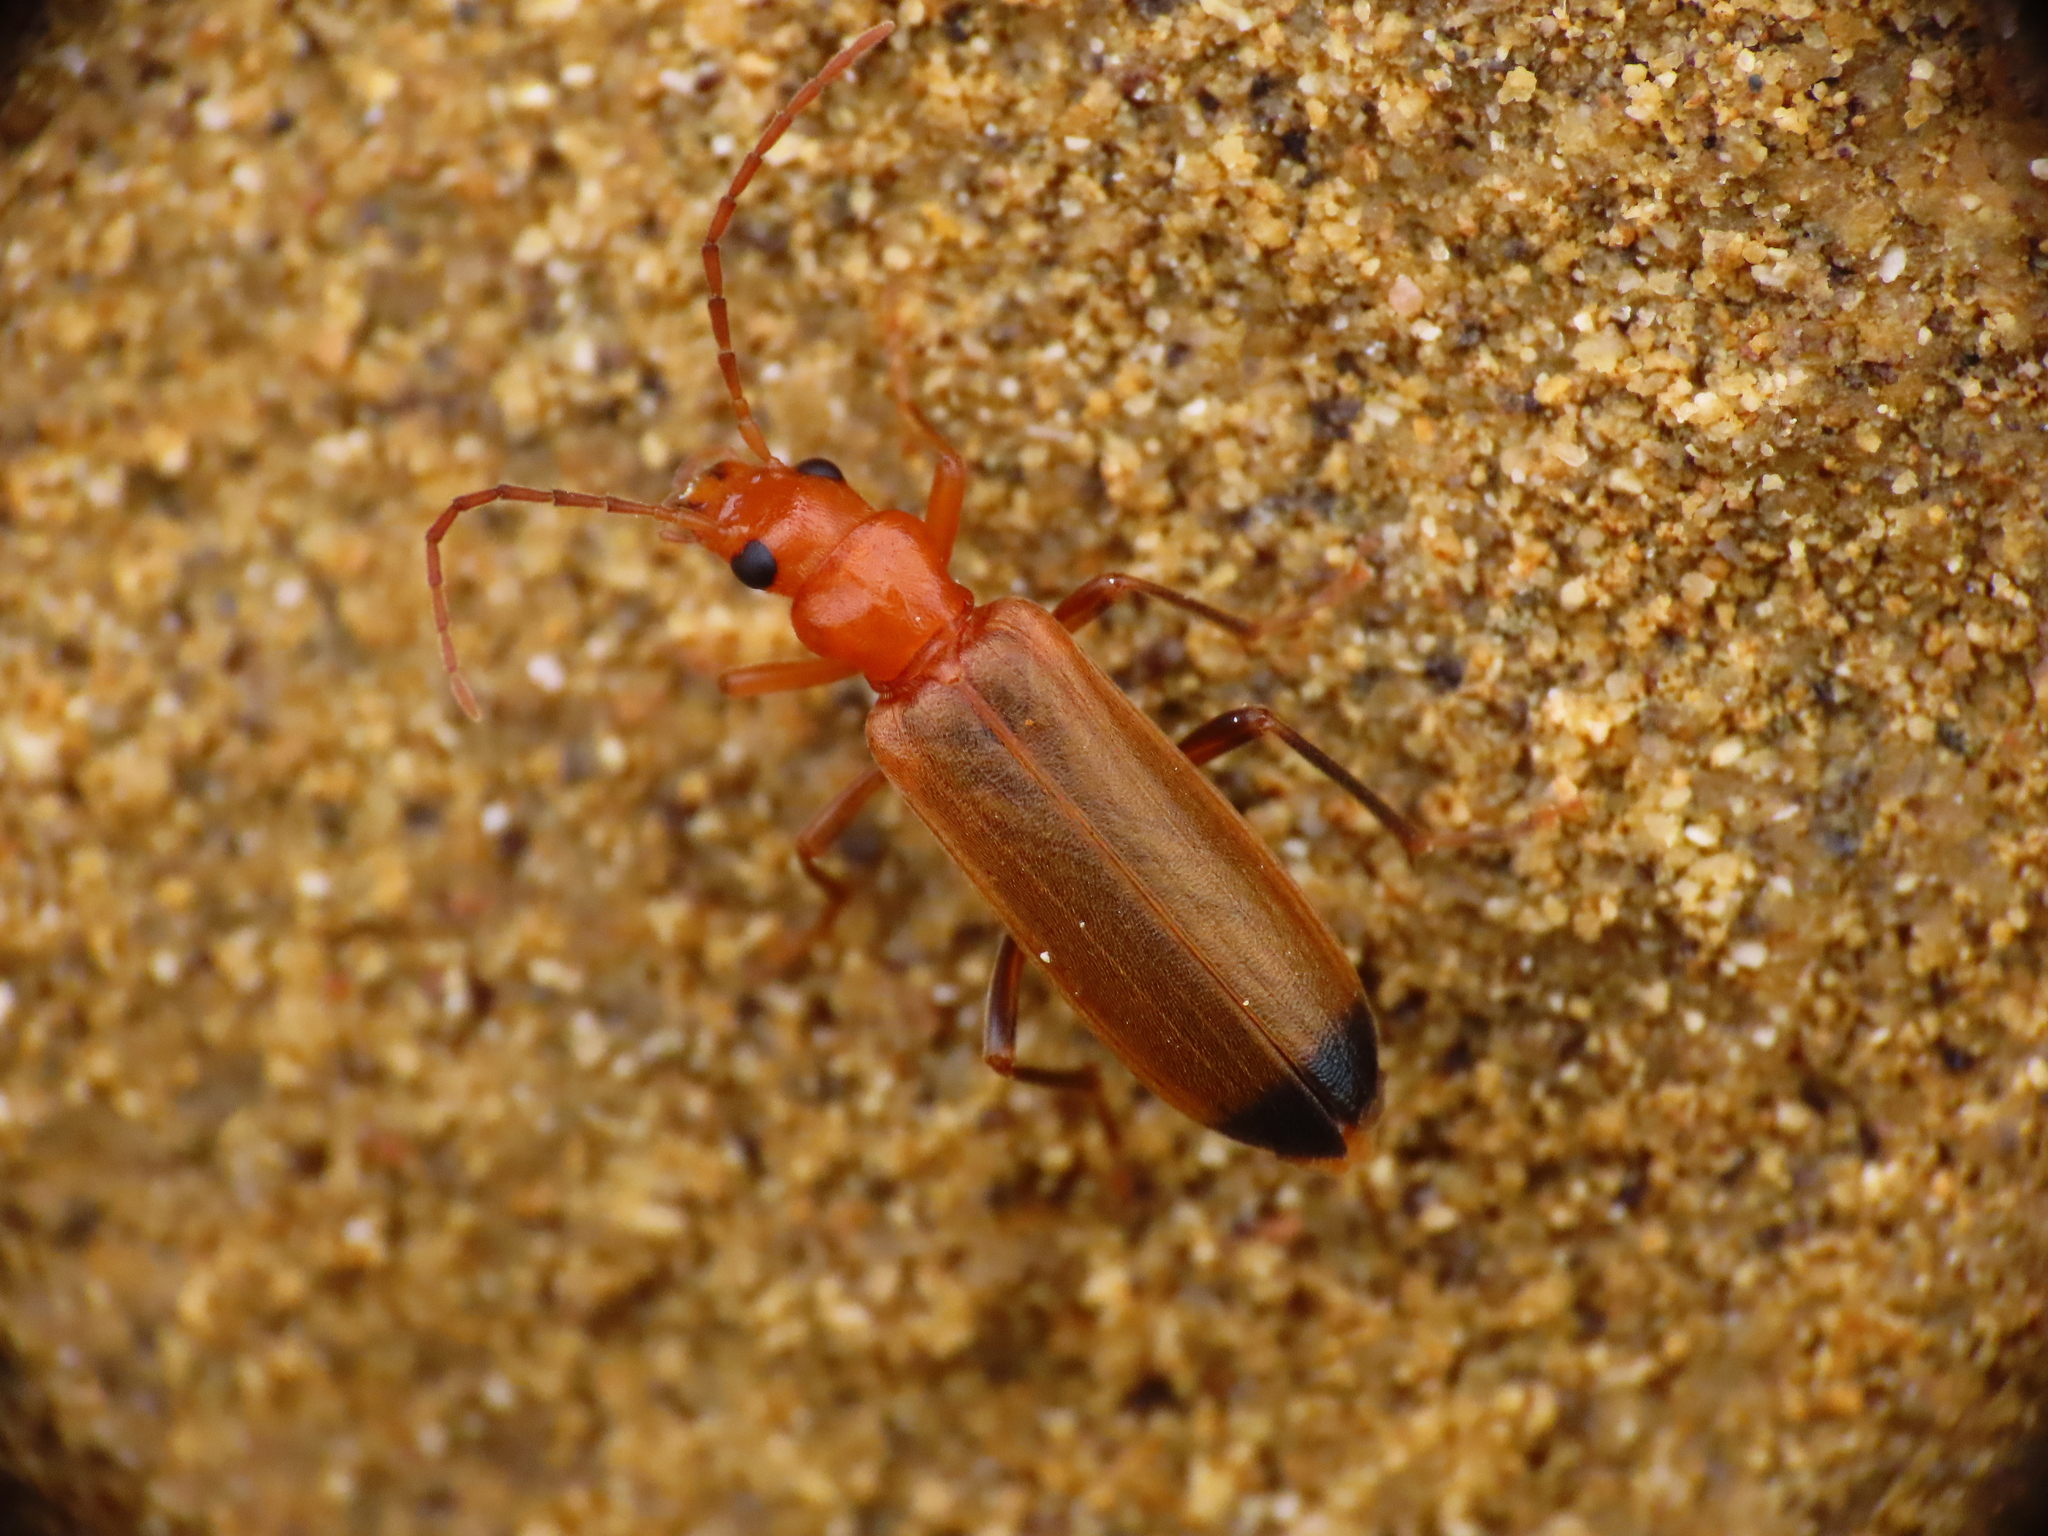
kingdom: Animalia
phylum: Arthropoda
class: Insecta
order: Coleoptera
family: Oedemeridae
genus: Nacerdes
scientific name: Nacerdes melanura
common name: Wharf borer
